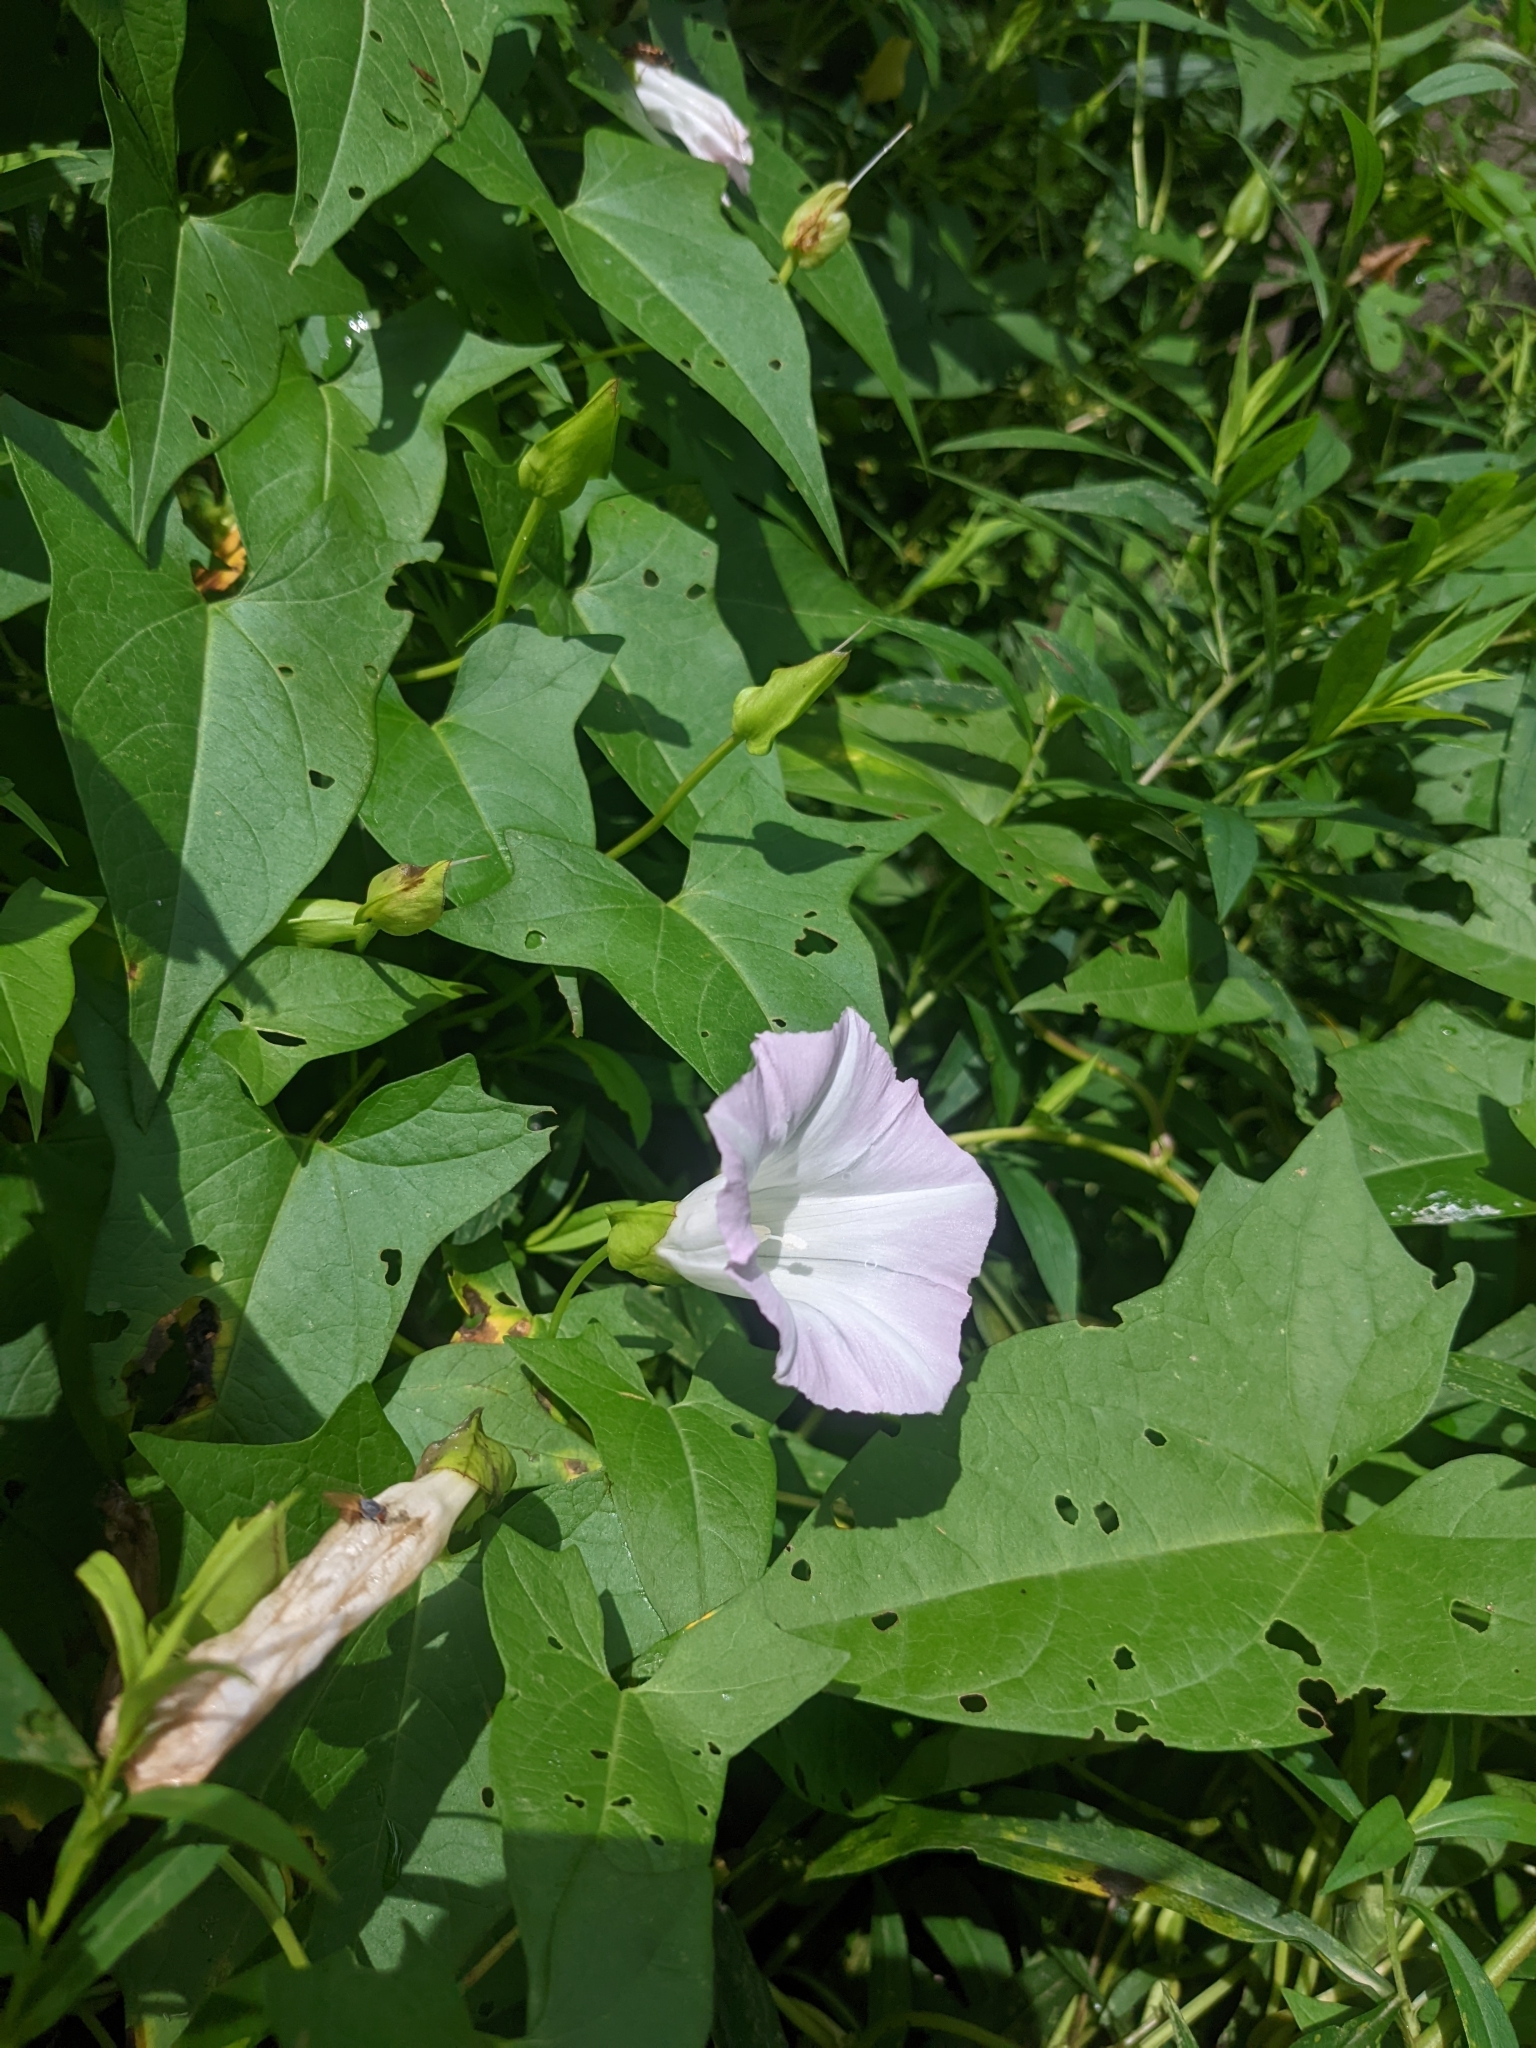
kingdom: Plantae
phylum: Tracheophyta
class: Magnoliopsida
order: Solanales
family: Convolvulaceae
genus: Calystegia
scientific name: Calystegia sepium
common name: Hedge bindweed
